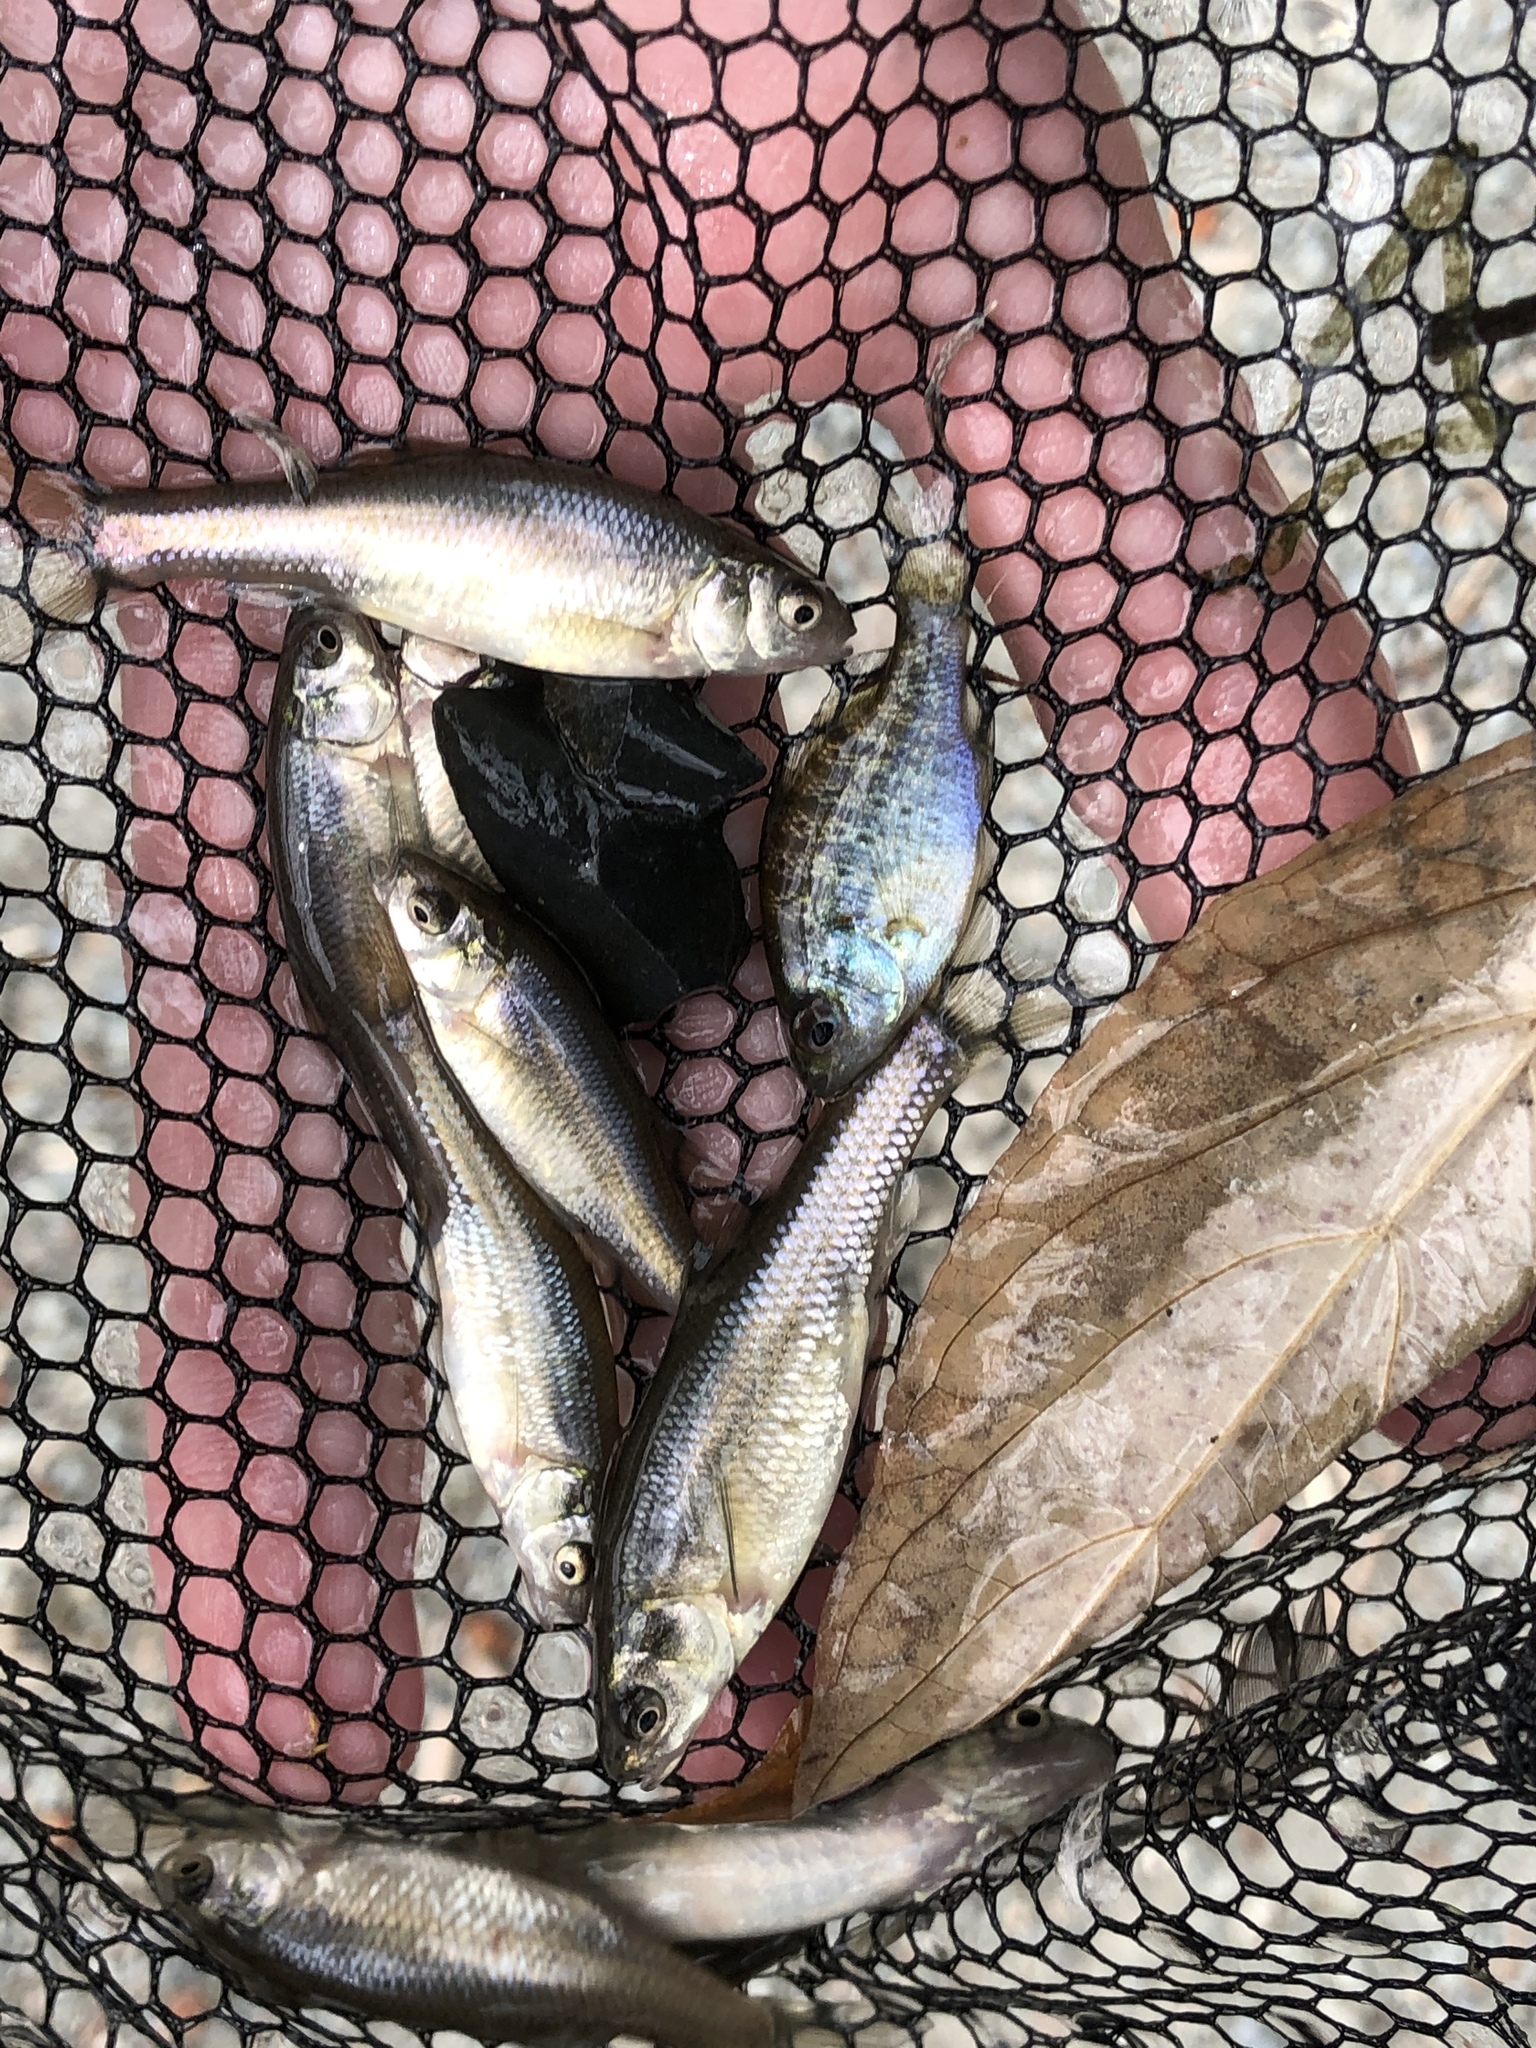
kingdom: Animalia
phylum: Chordata
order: Cypriniformes
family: Cyprinidae
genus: Pimephales
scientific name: Pimephales promelas
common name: Fathead minnow
